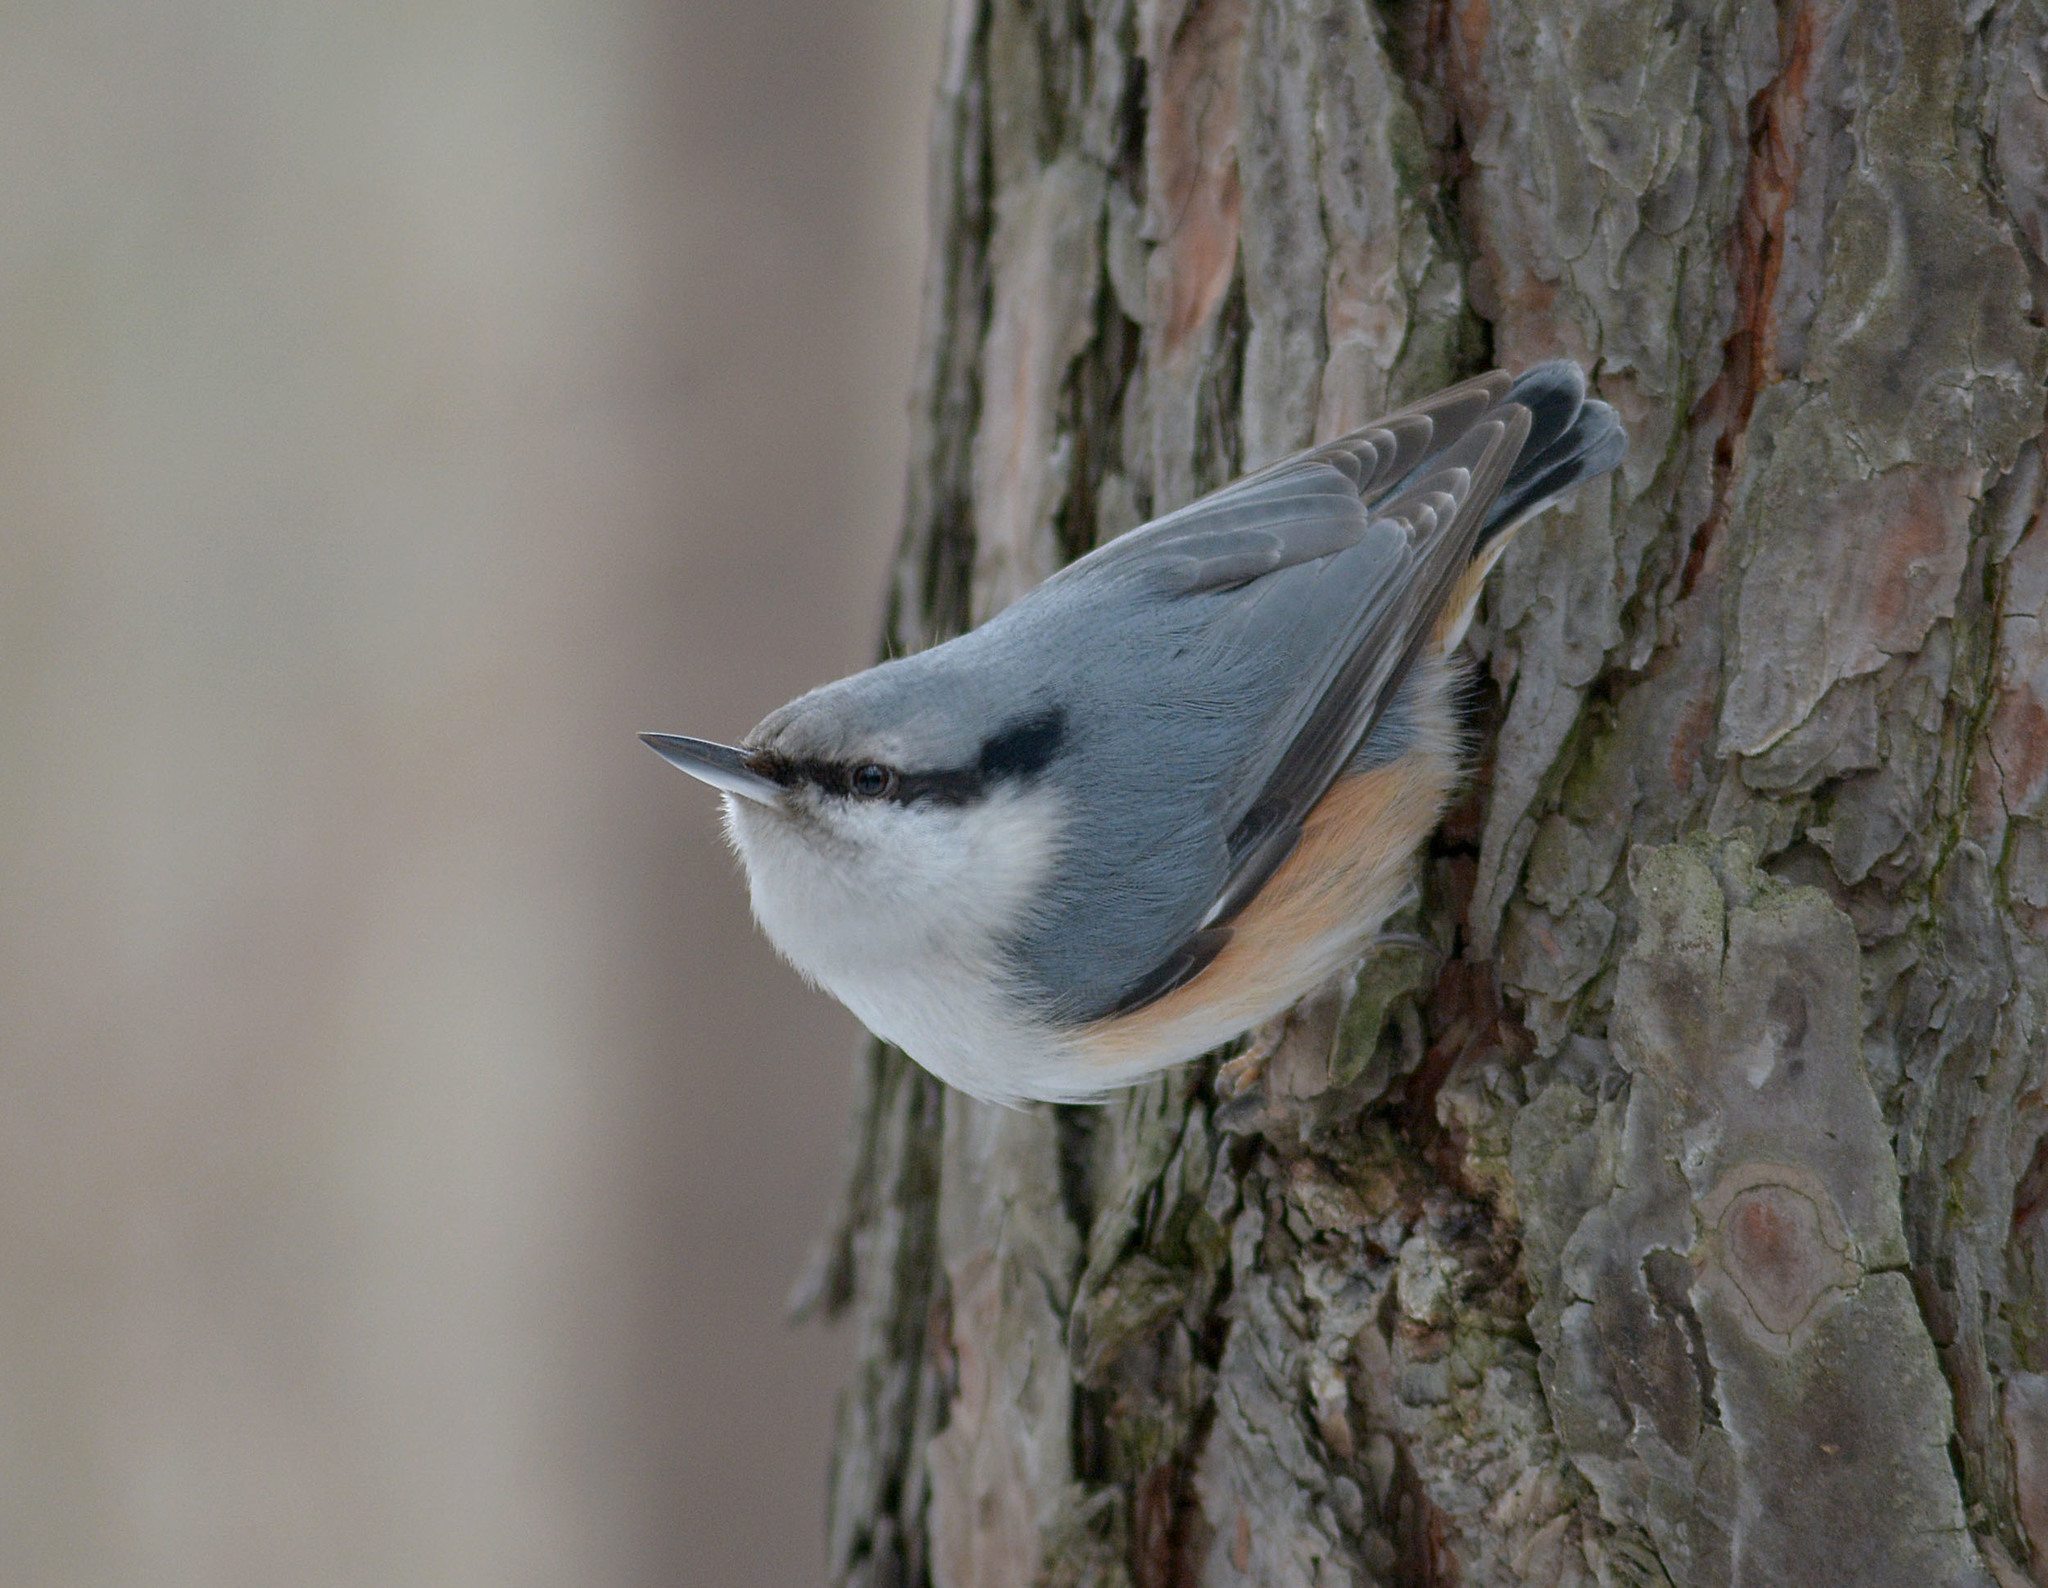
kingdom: Animalia
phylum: Chordata
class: Aves
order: Passeriformes
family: Sittidae
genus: Sitta
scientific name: Sitta europaea
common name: Eurasian nuthatch
